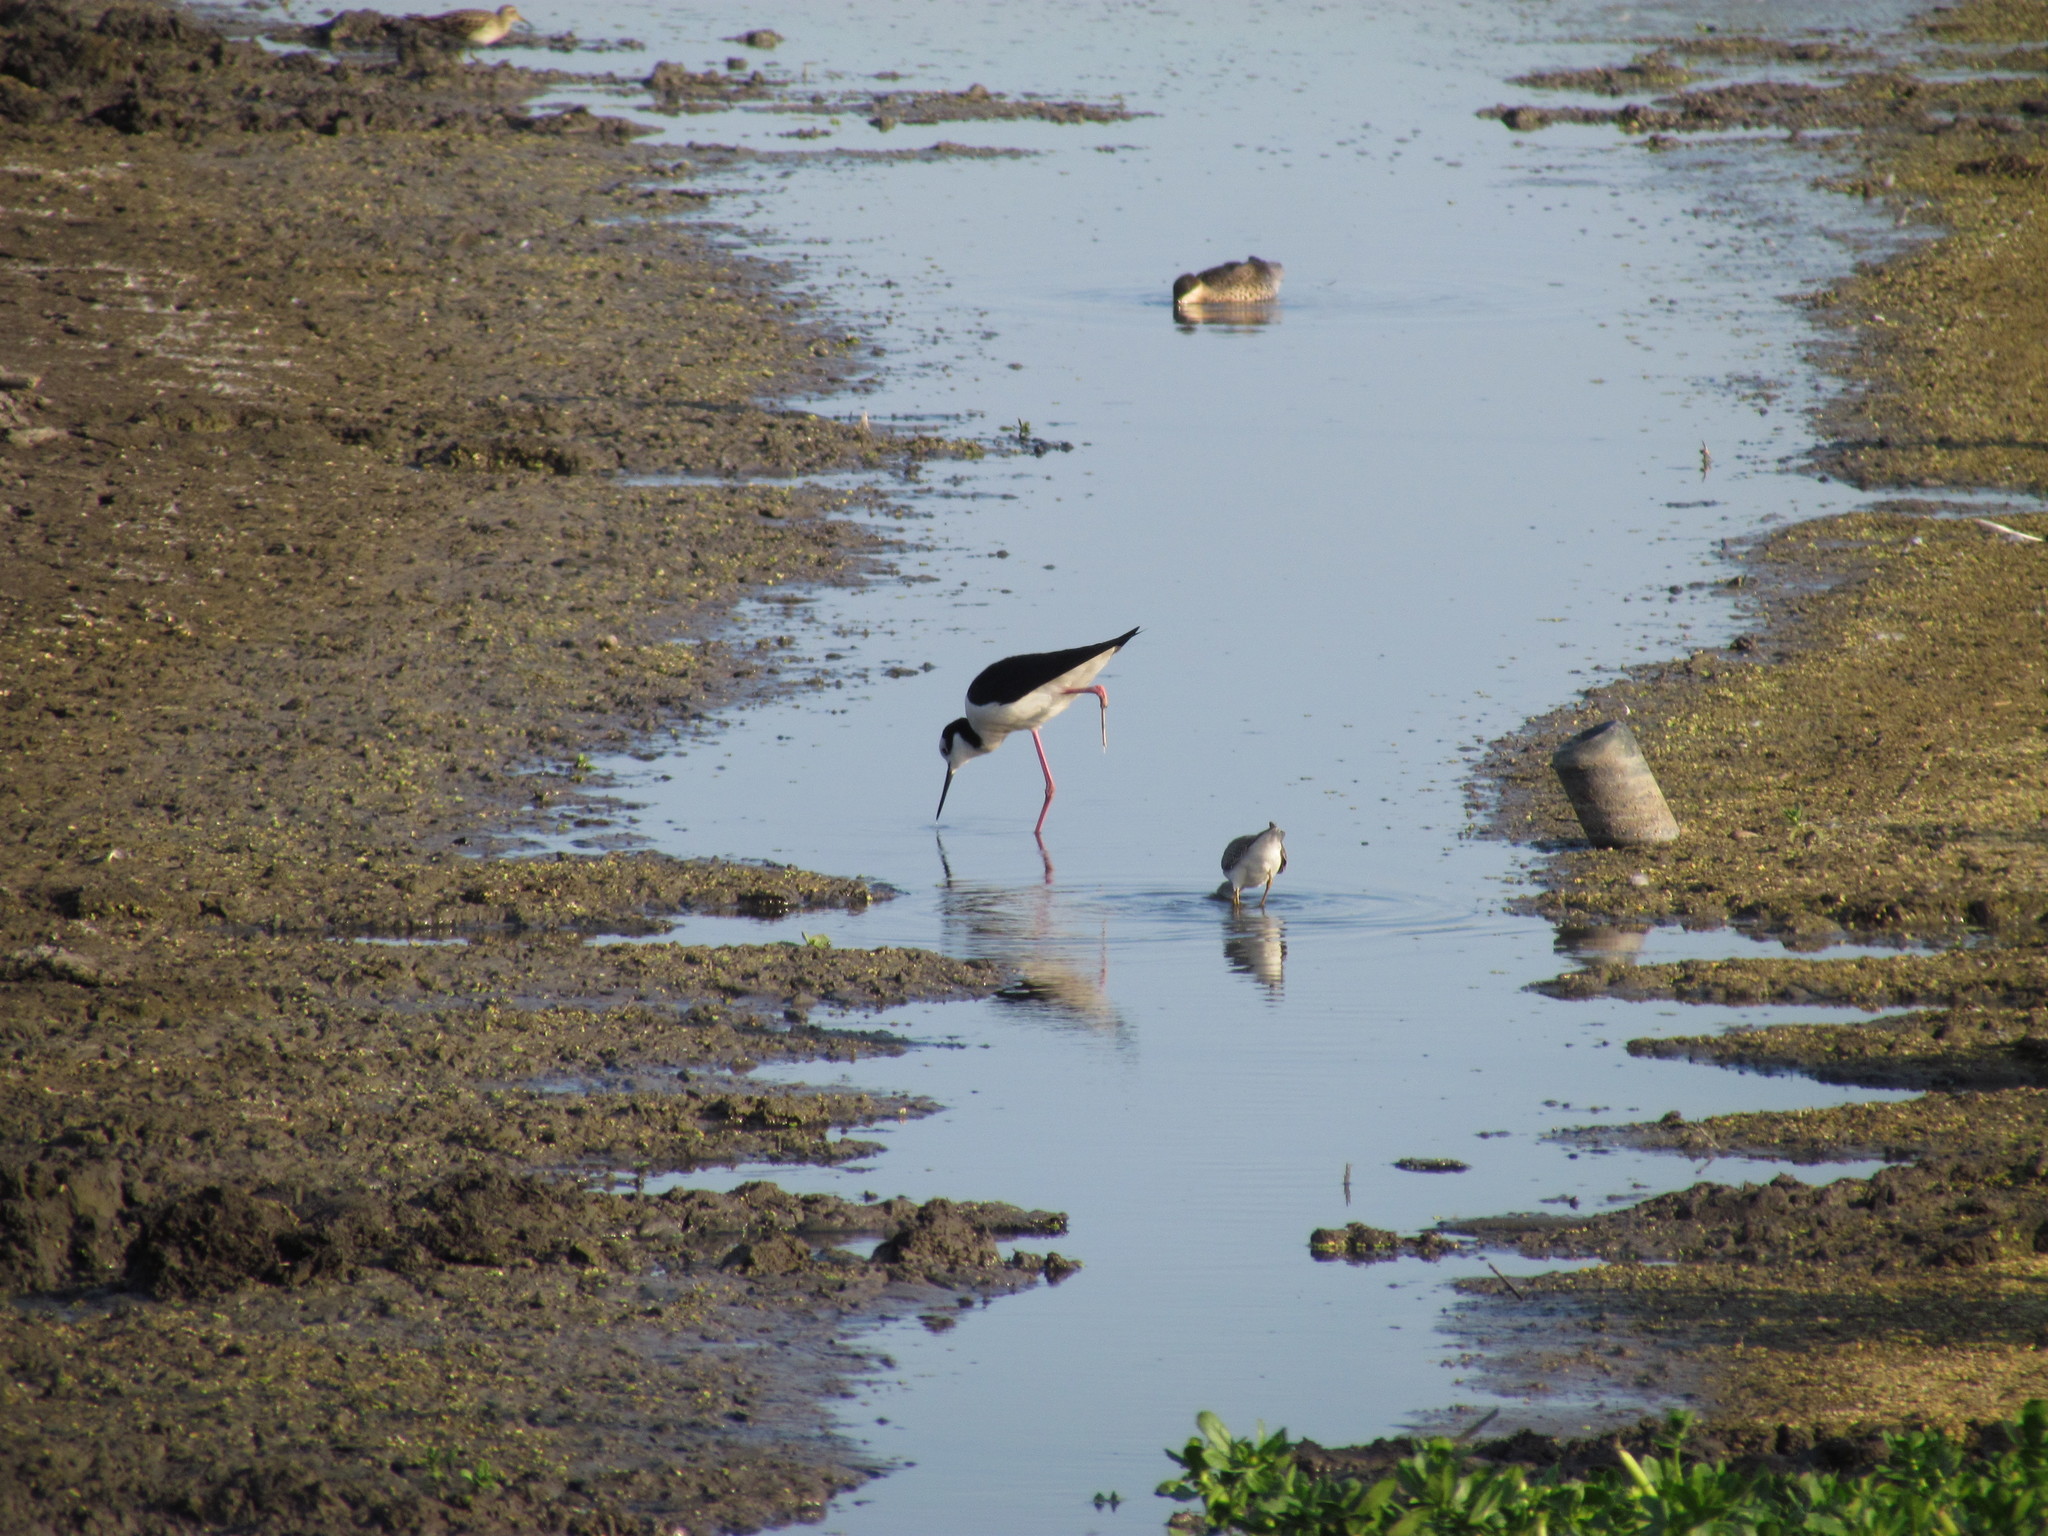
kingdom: Animalia
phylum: Chordata
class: Aves
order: Charadriiformes
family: Recurvirostridae
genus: Himantopus
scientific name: Himantopus mexicanus
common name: Black-necked stilt
